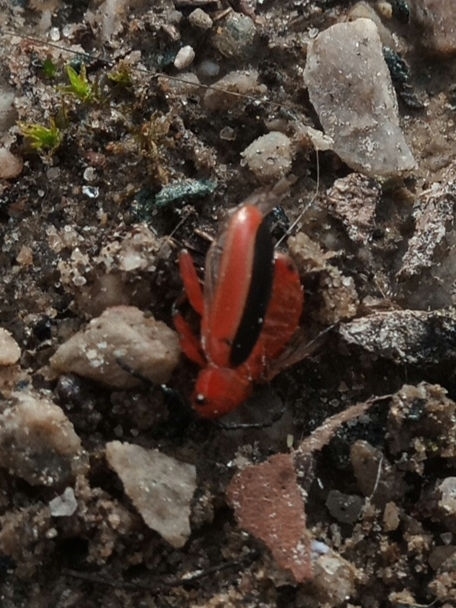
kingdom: Animalia
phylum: Arthropoda
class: Insecta
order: Coleoptera
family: Chrysomelidae
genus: Disonycha
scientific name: Disonycha discoidea
